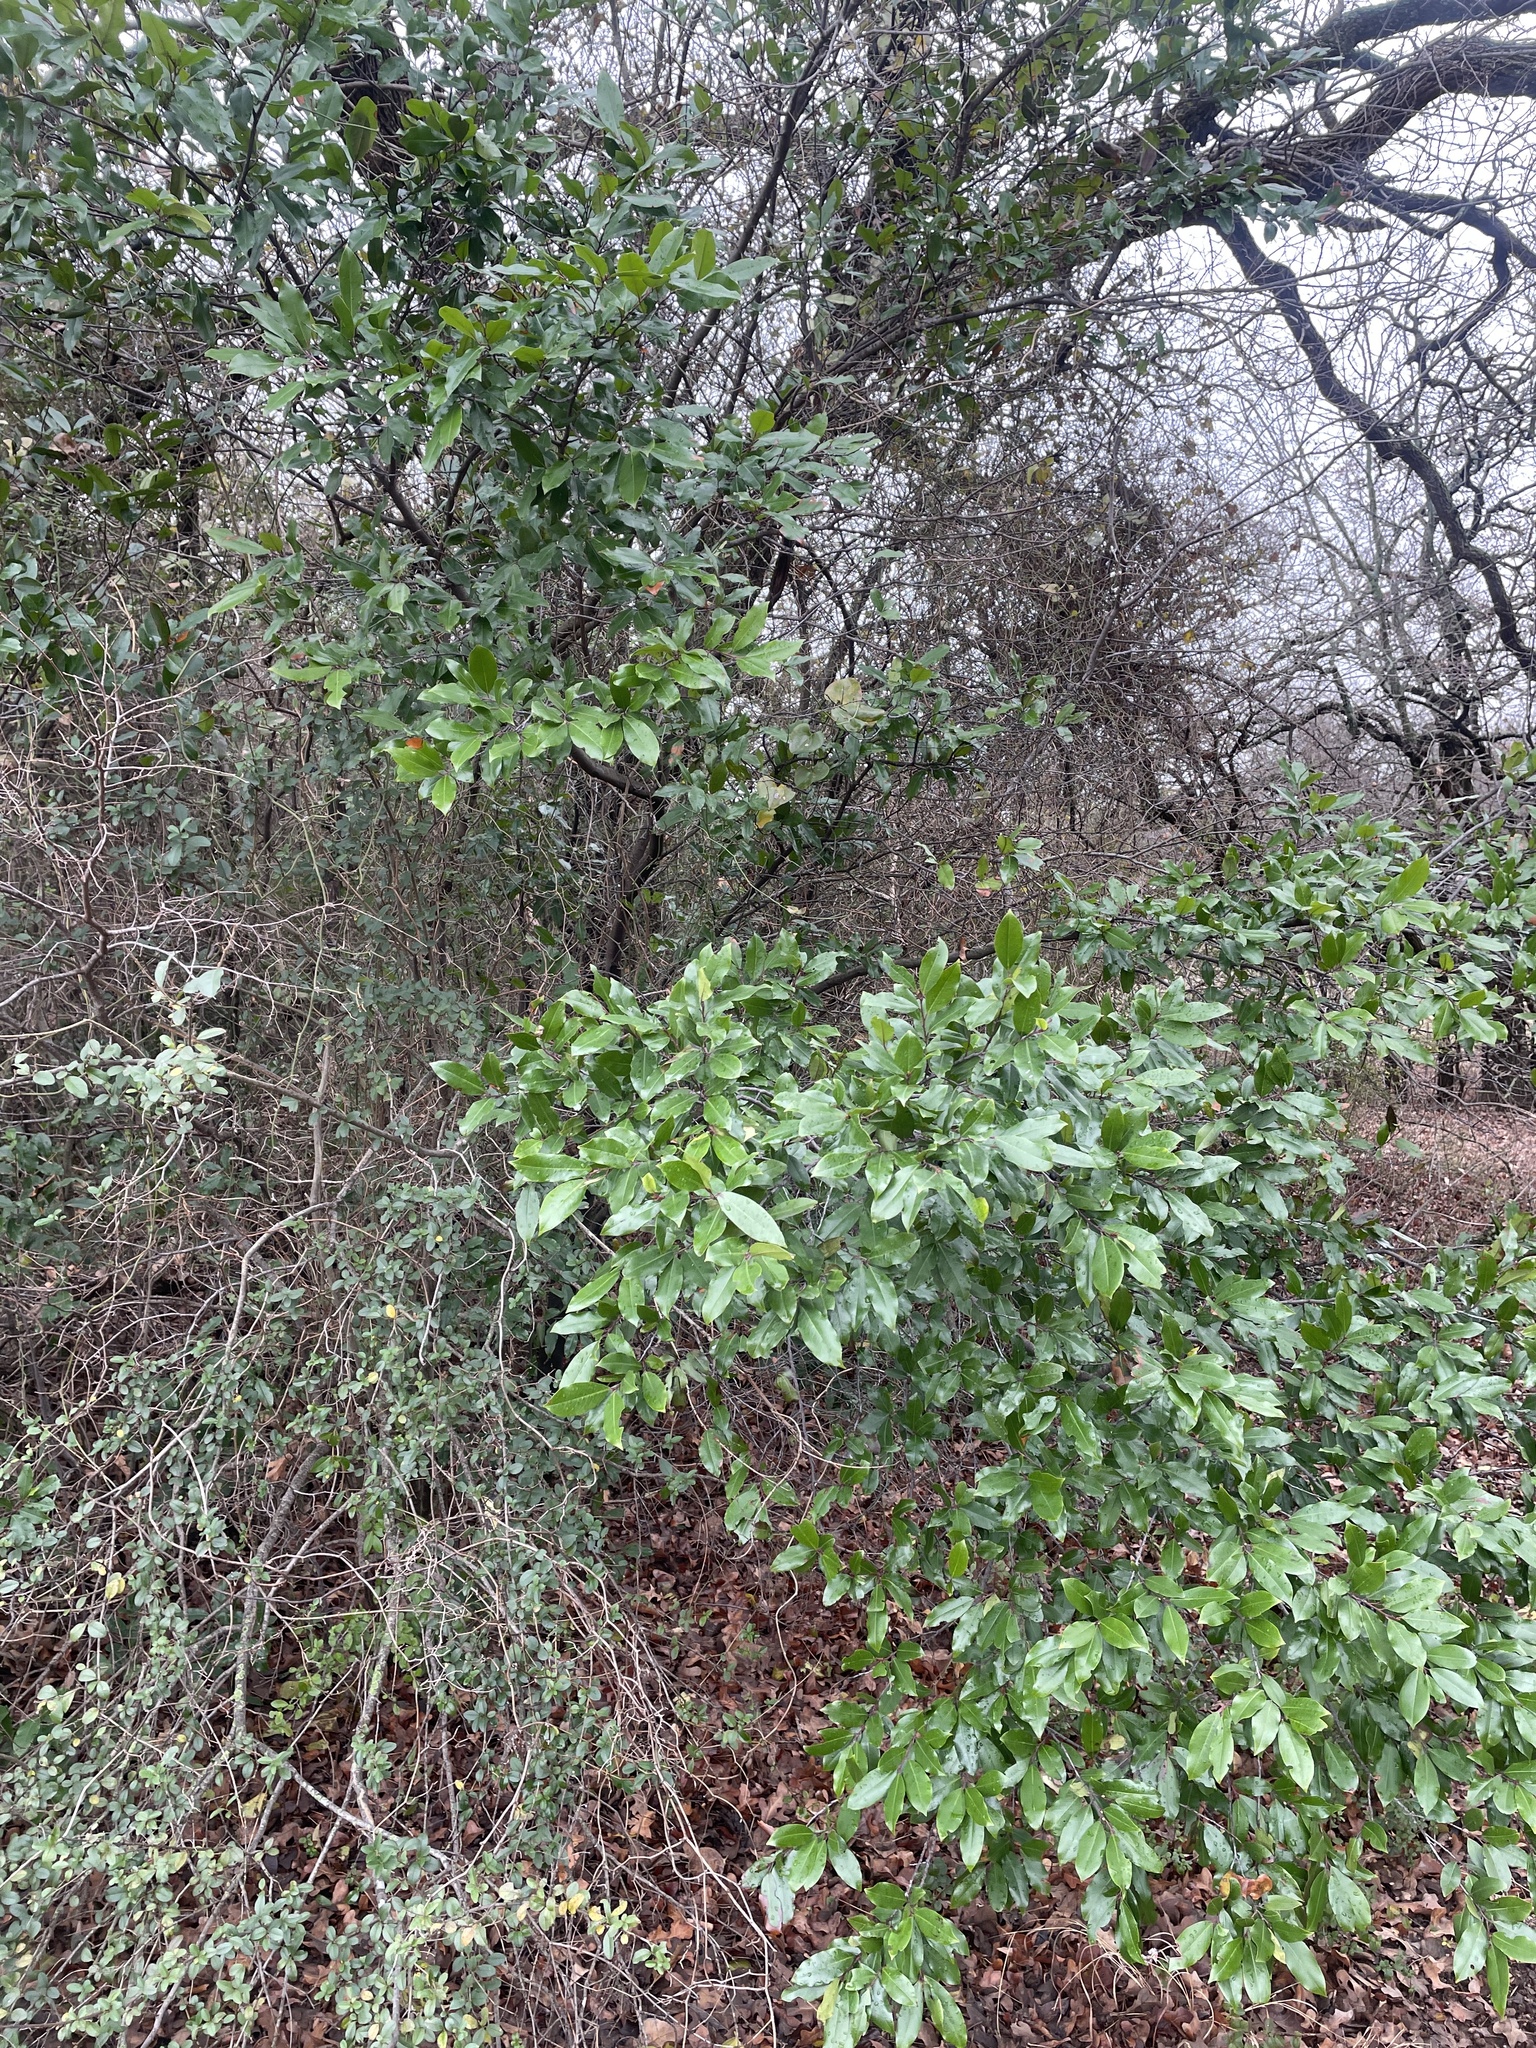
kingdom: Plantae
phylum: Tracheophyta
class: Magnoliopsida
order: Rosales
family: Rosaceae
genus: Prunus
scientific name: Prunus caroliniana
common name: Carolina laurel cherry
